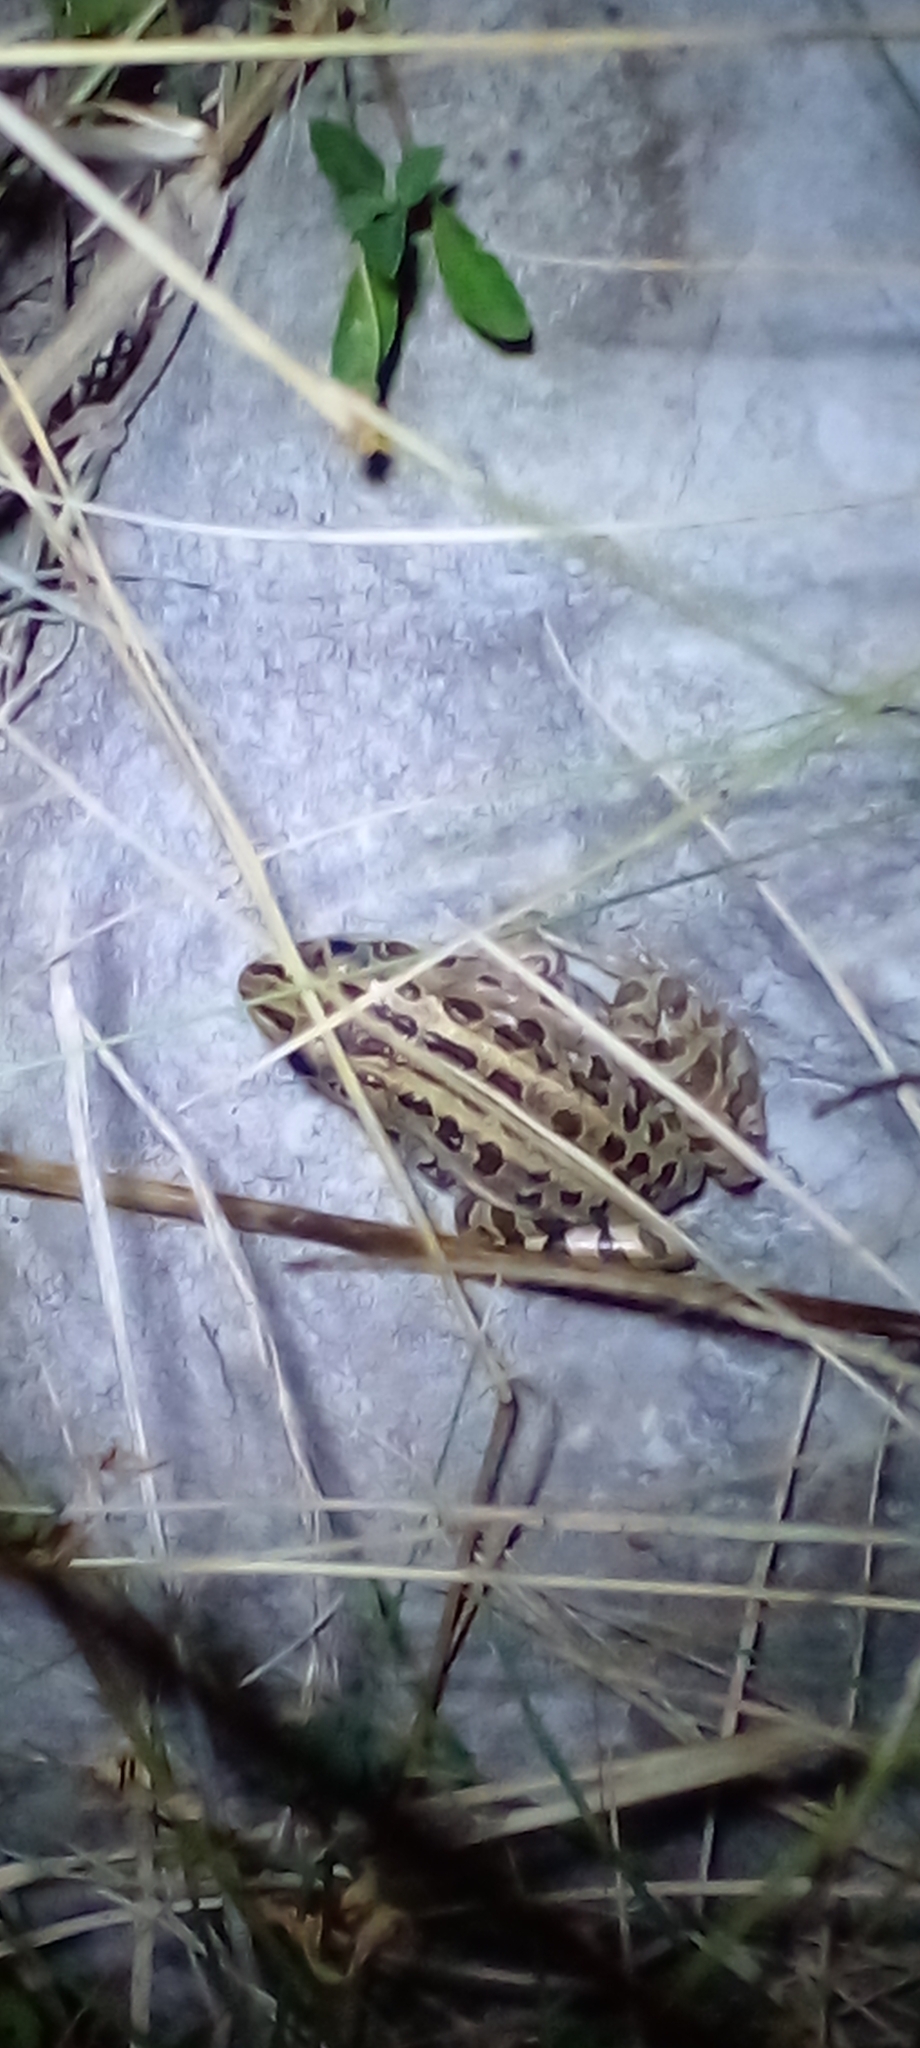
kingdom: Animalia
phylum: Chordata
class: Amphibia
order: Anura
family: Leptodactylidae
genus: Leptodactylus
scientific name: Leptodactylus luctator
